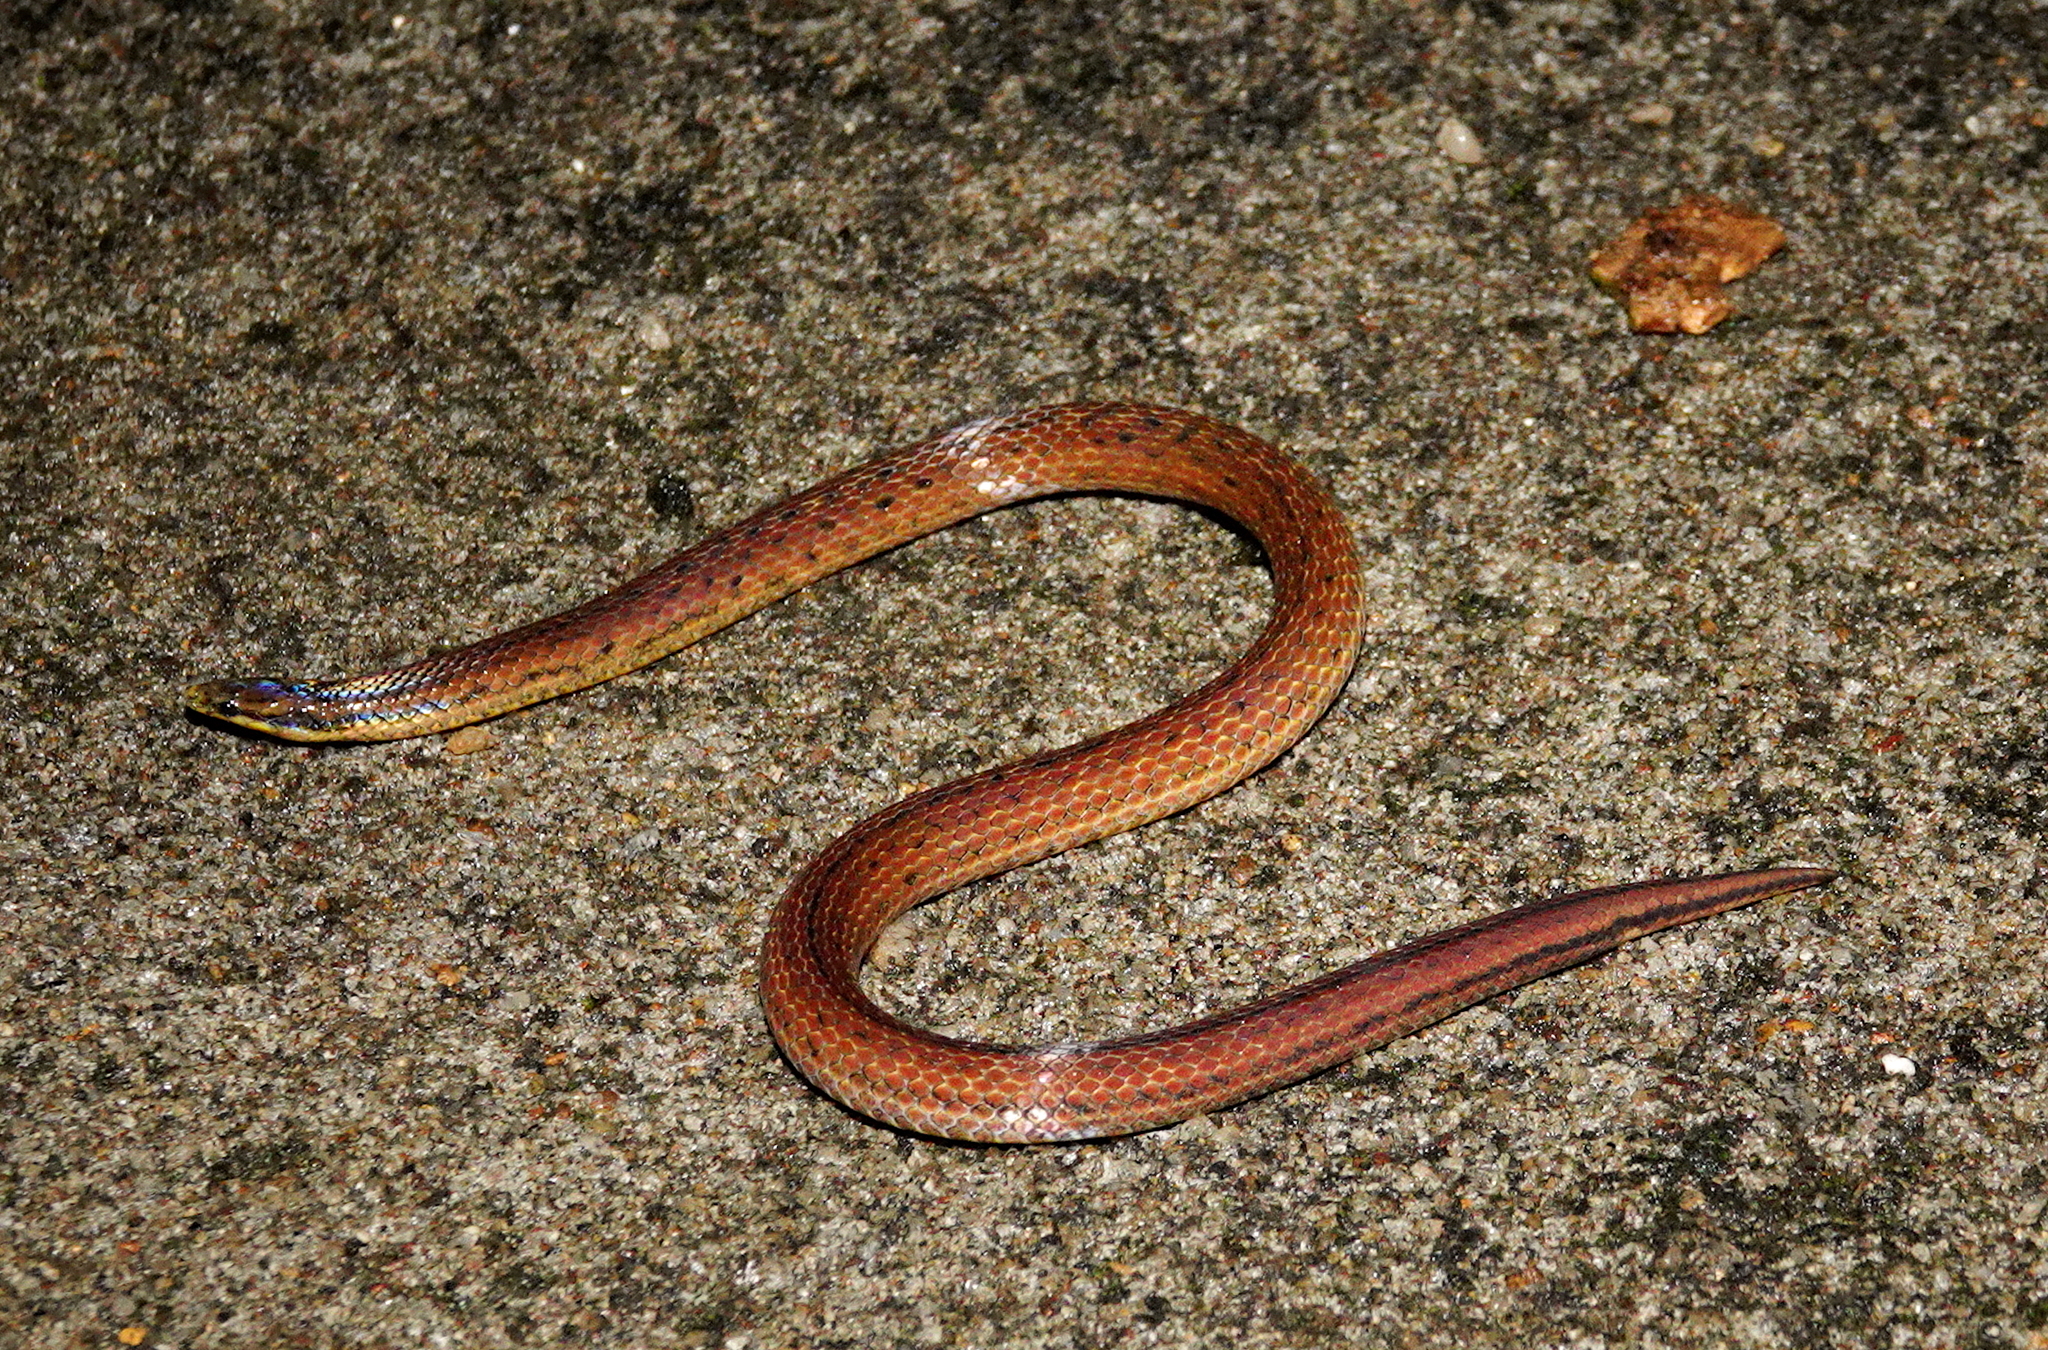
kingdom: Animalia
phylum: Chordata
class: Squamata
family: Colubridae
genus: Aspidura
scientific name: Aspidura trachyprocta
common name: Common rough-sided snake
